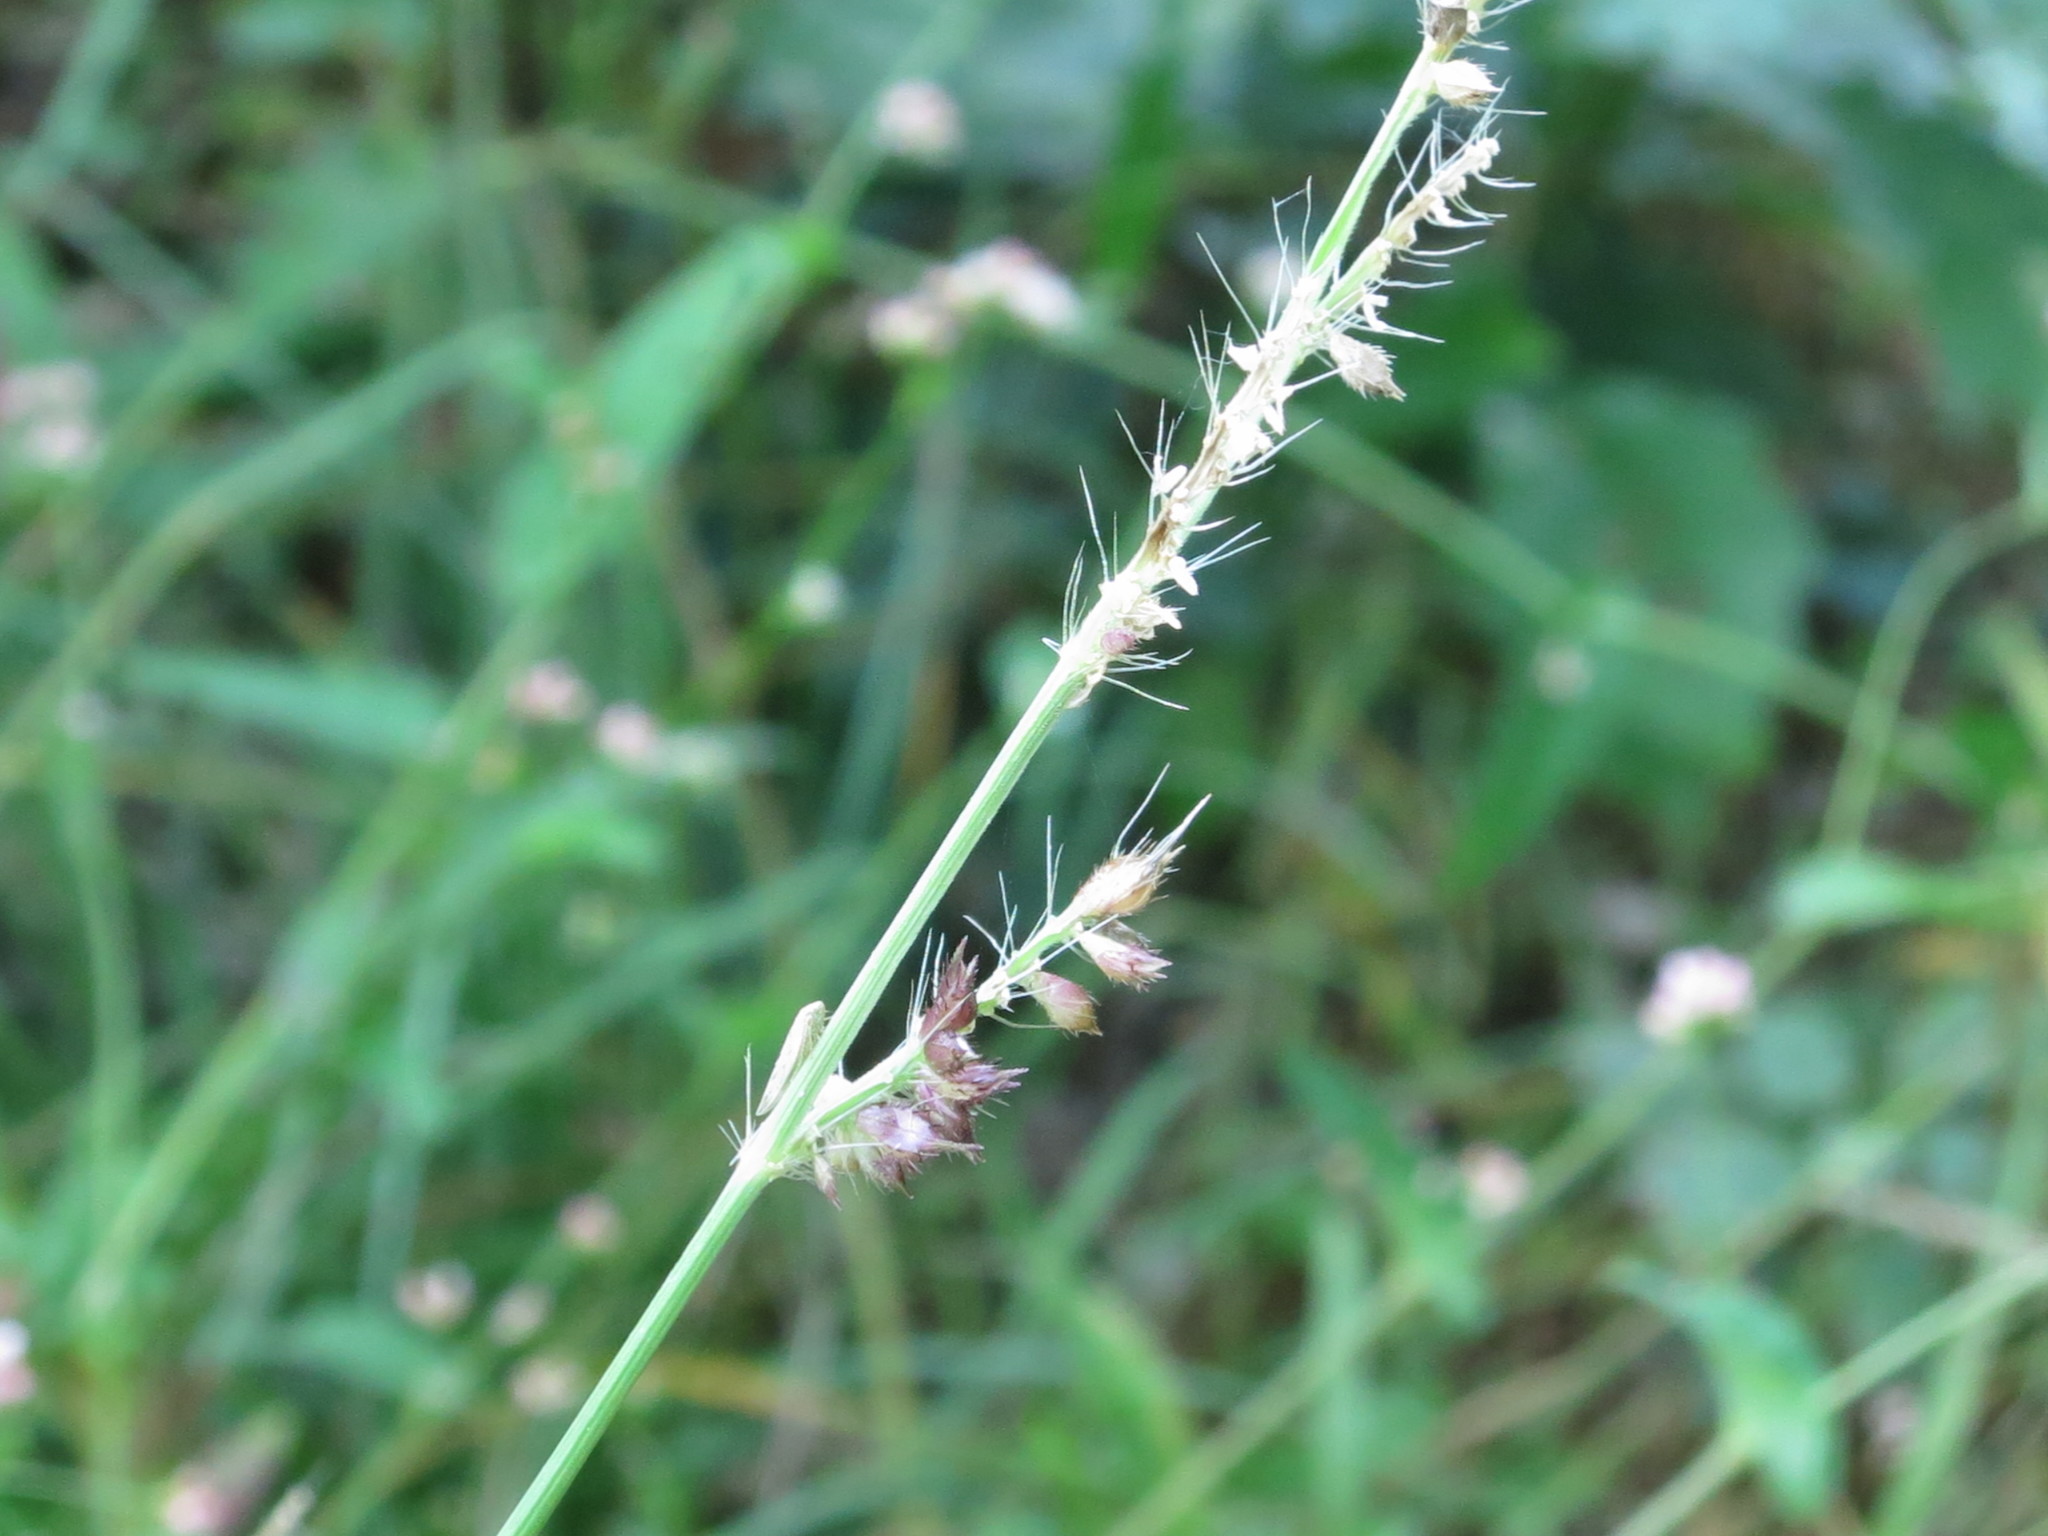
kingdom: Plantae
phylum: Tracheophyta
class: Liliopsida
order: Poales
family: Poaceae
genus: Echinochloa
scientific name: Echinochloa crus-galli
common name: Cockspur
